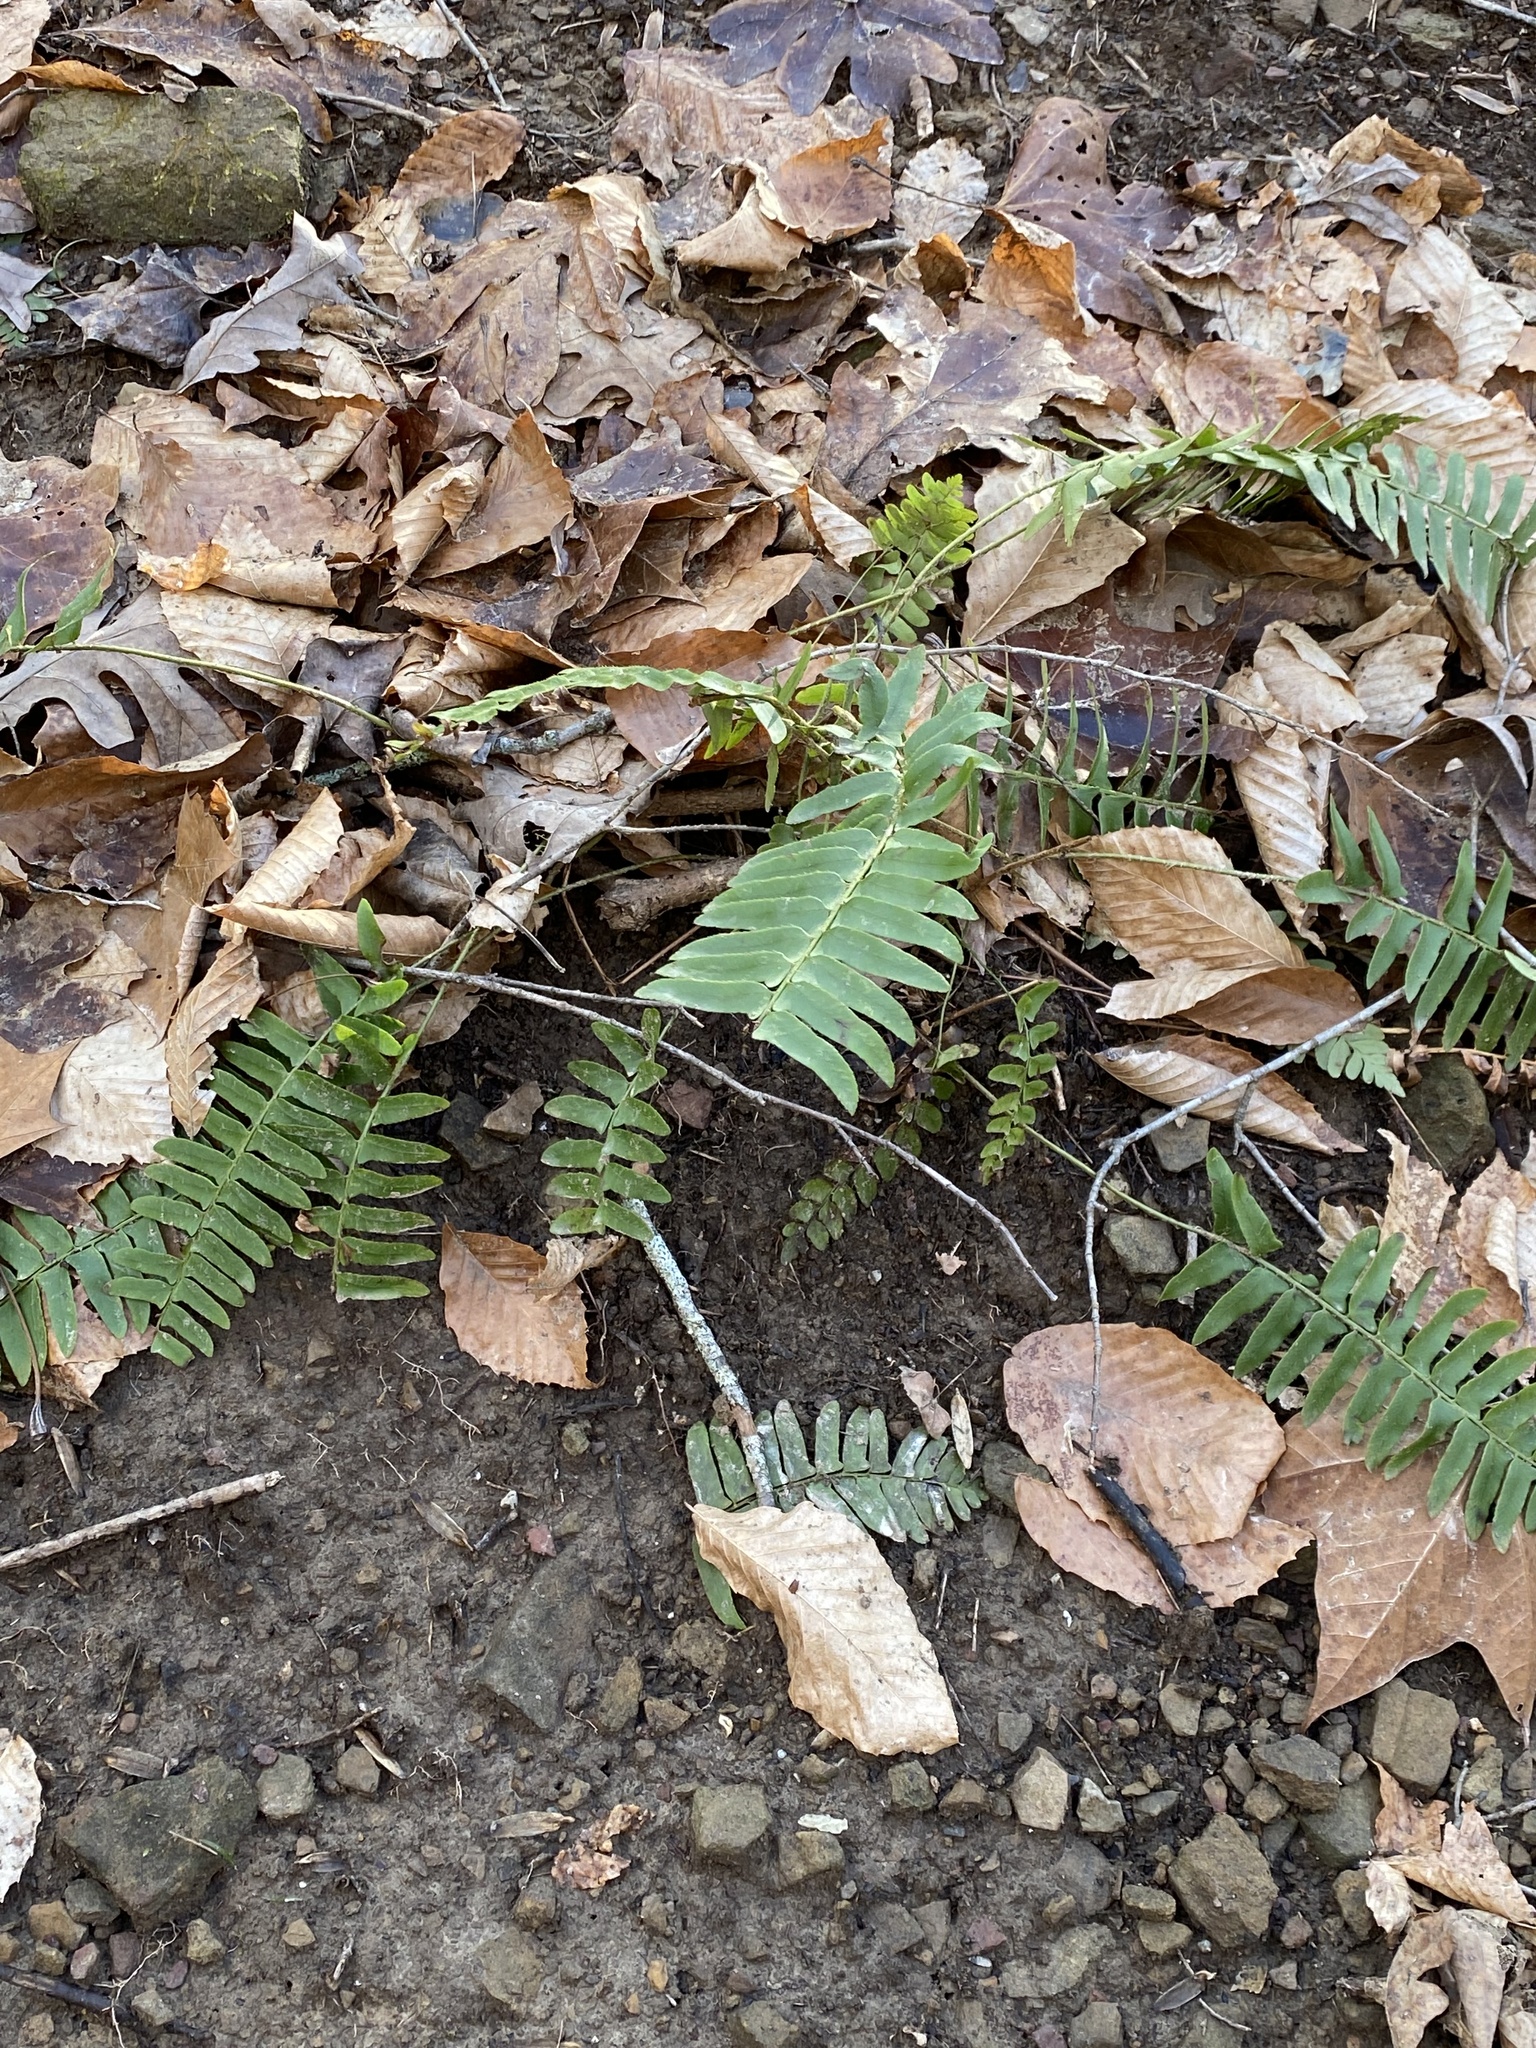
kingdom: Plantae
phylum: Tracheophyta
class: Polypodiopsida
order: Polypodiales
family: Dryopteridaceae
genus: Polystichum
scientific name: Polystichum acrostichoides
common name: Christmas fern
